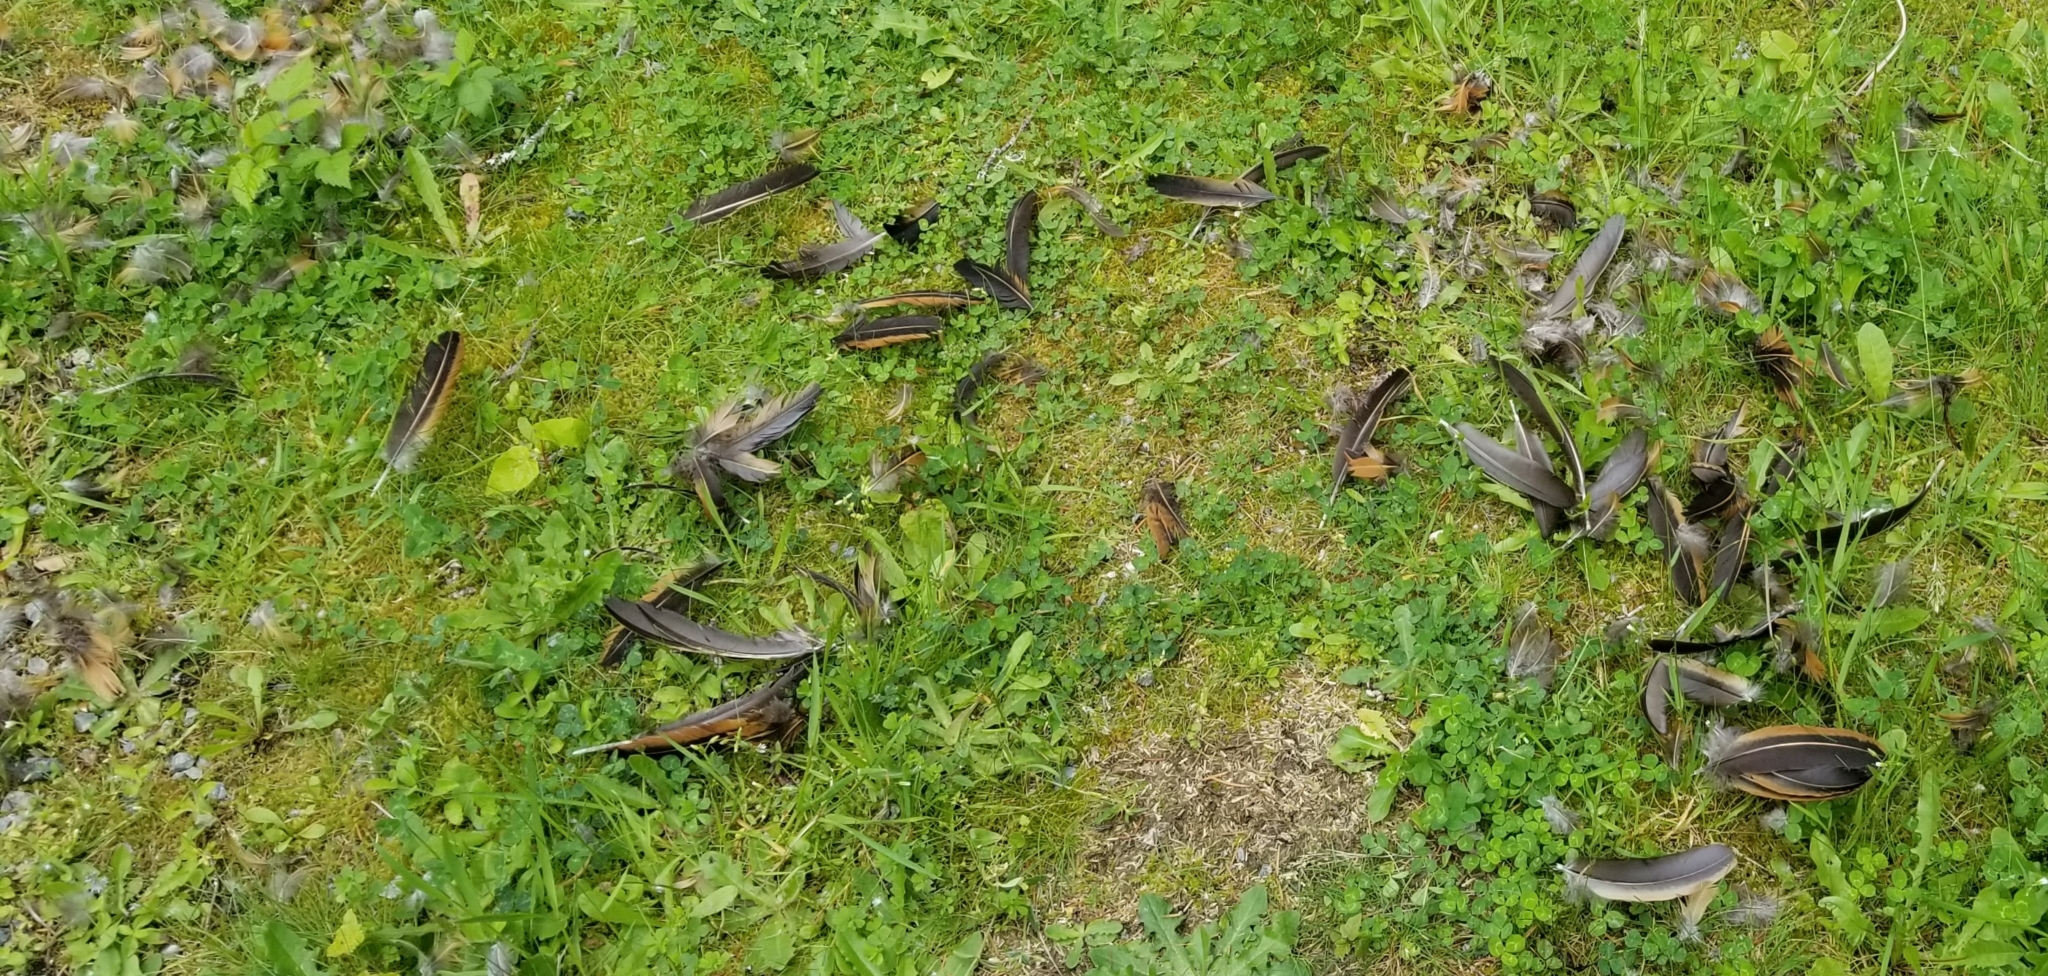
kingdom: Animalia
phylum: Chordata
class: Aves
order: Galliformes
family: Phasianidae
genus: Gallus
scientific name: Gallus gallus
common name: Red junglefowl
